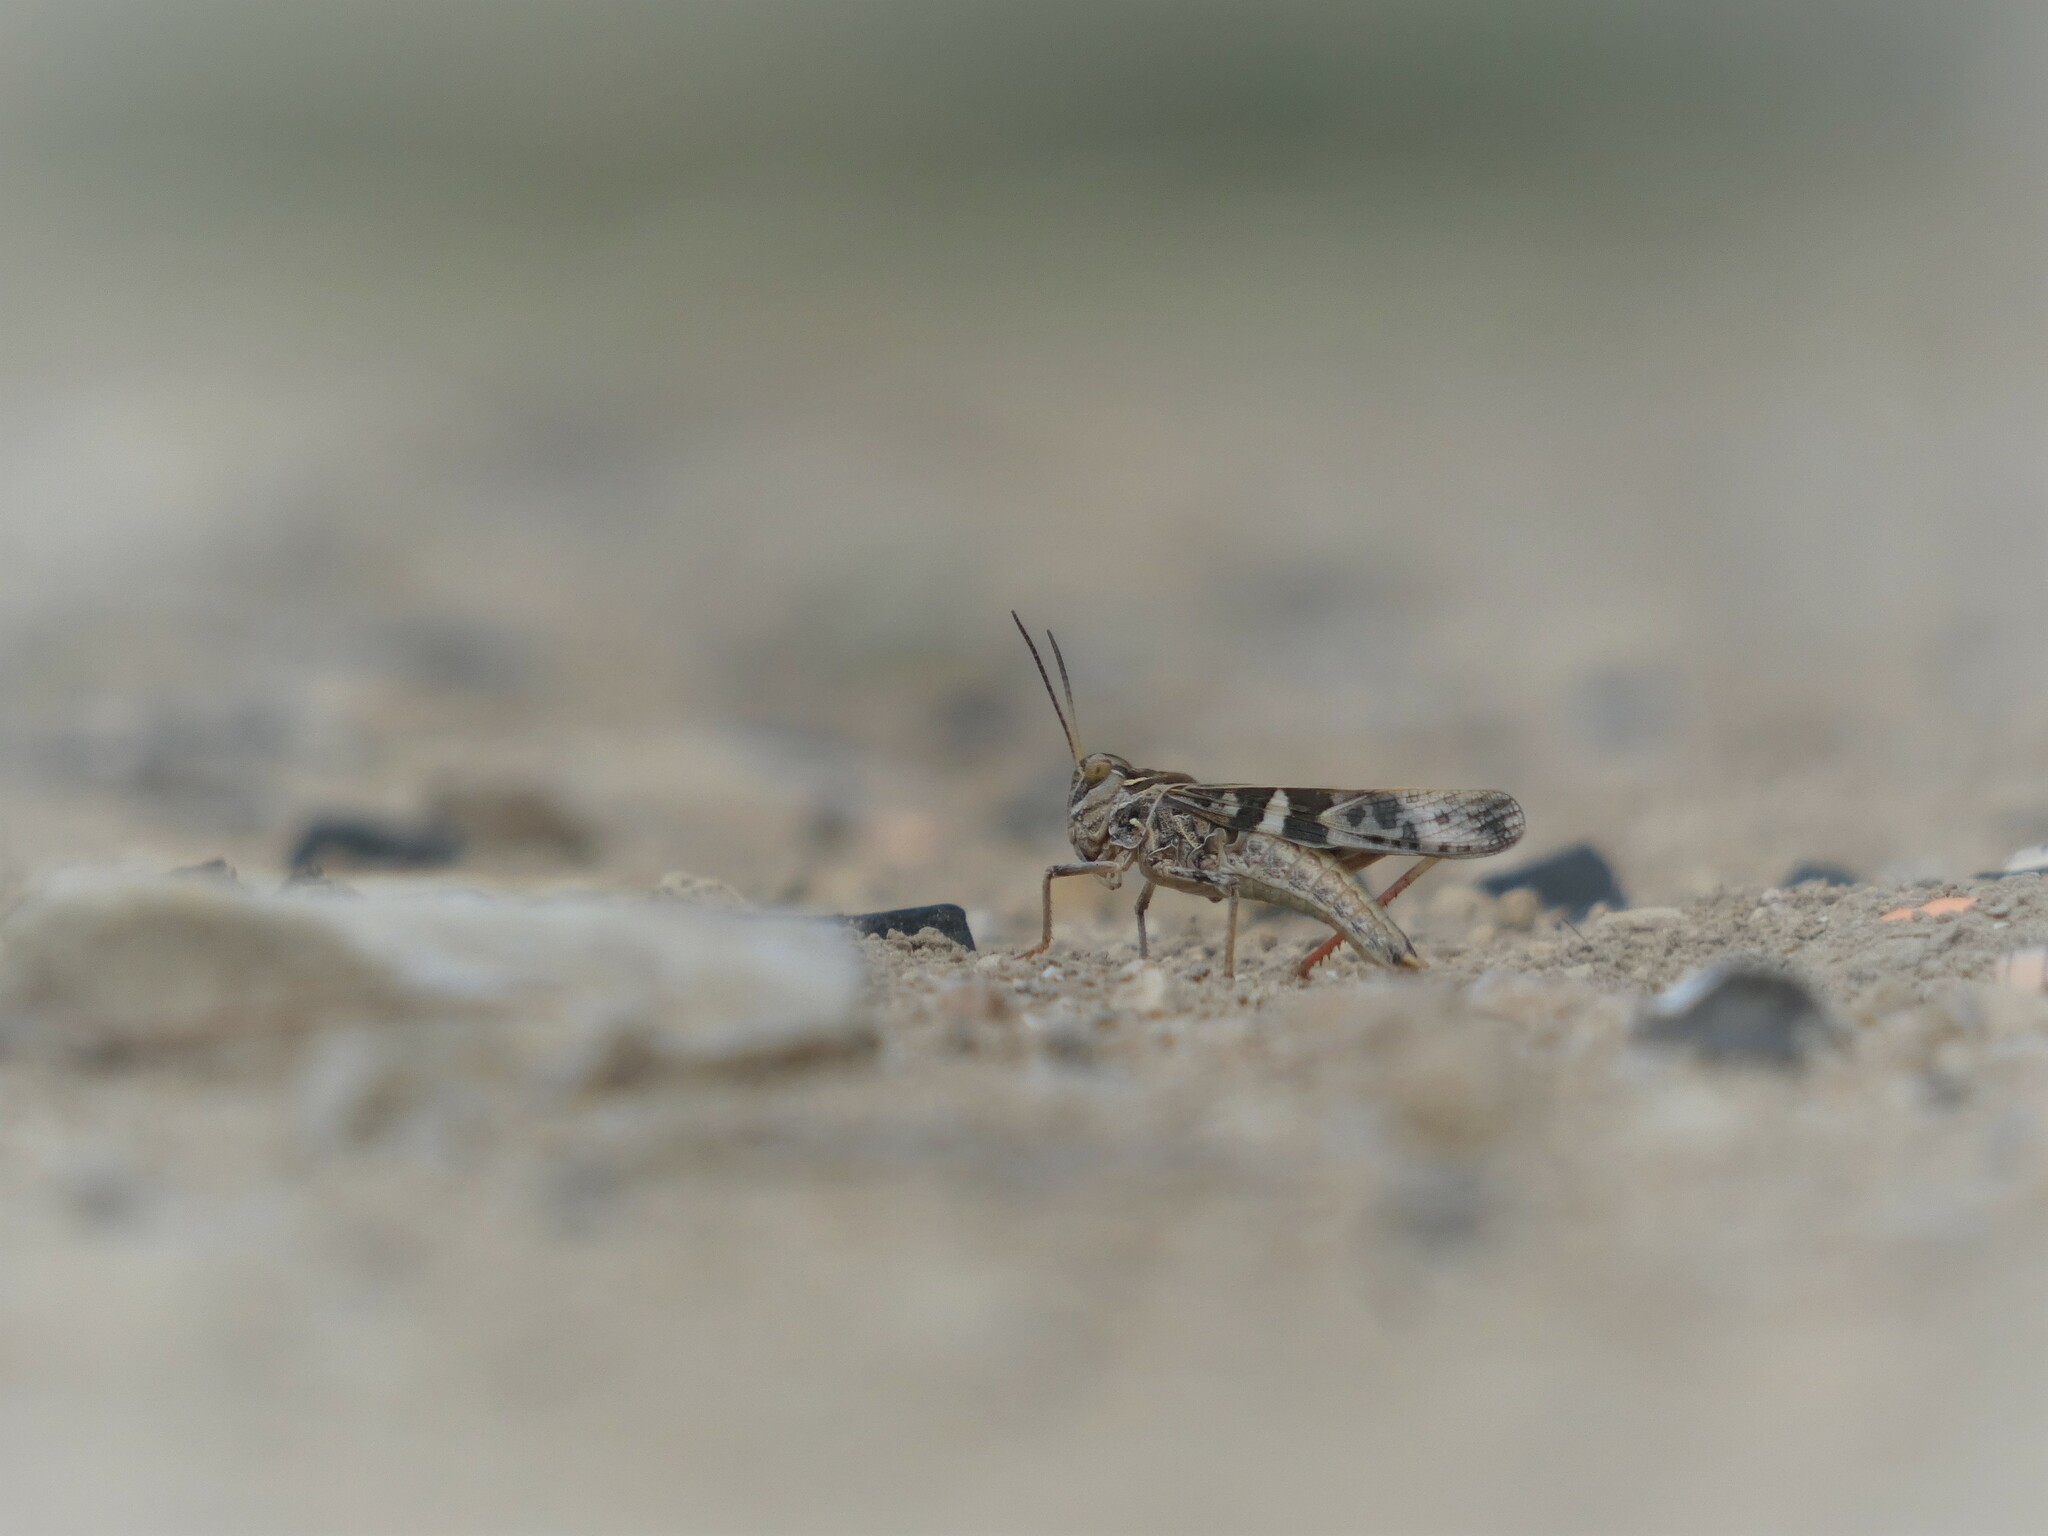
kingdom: Animalia
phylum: Arthropoda
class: Insecta
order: Orthoptera
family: Acrididae
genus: Oedaleus
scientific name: Oedaleus decorus
